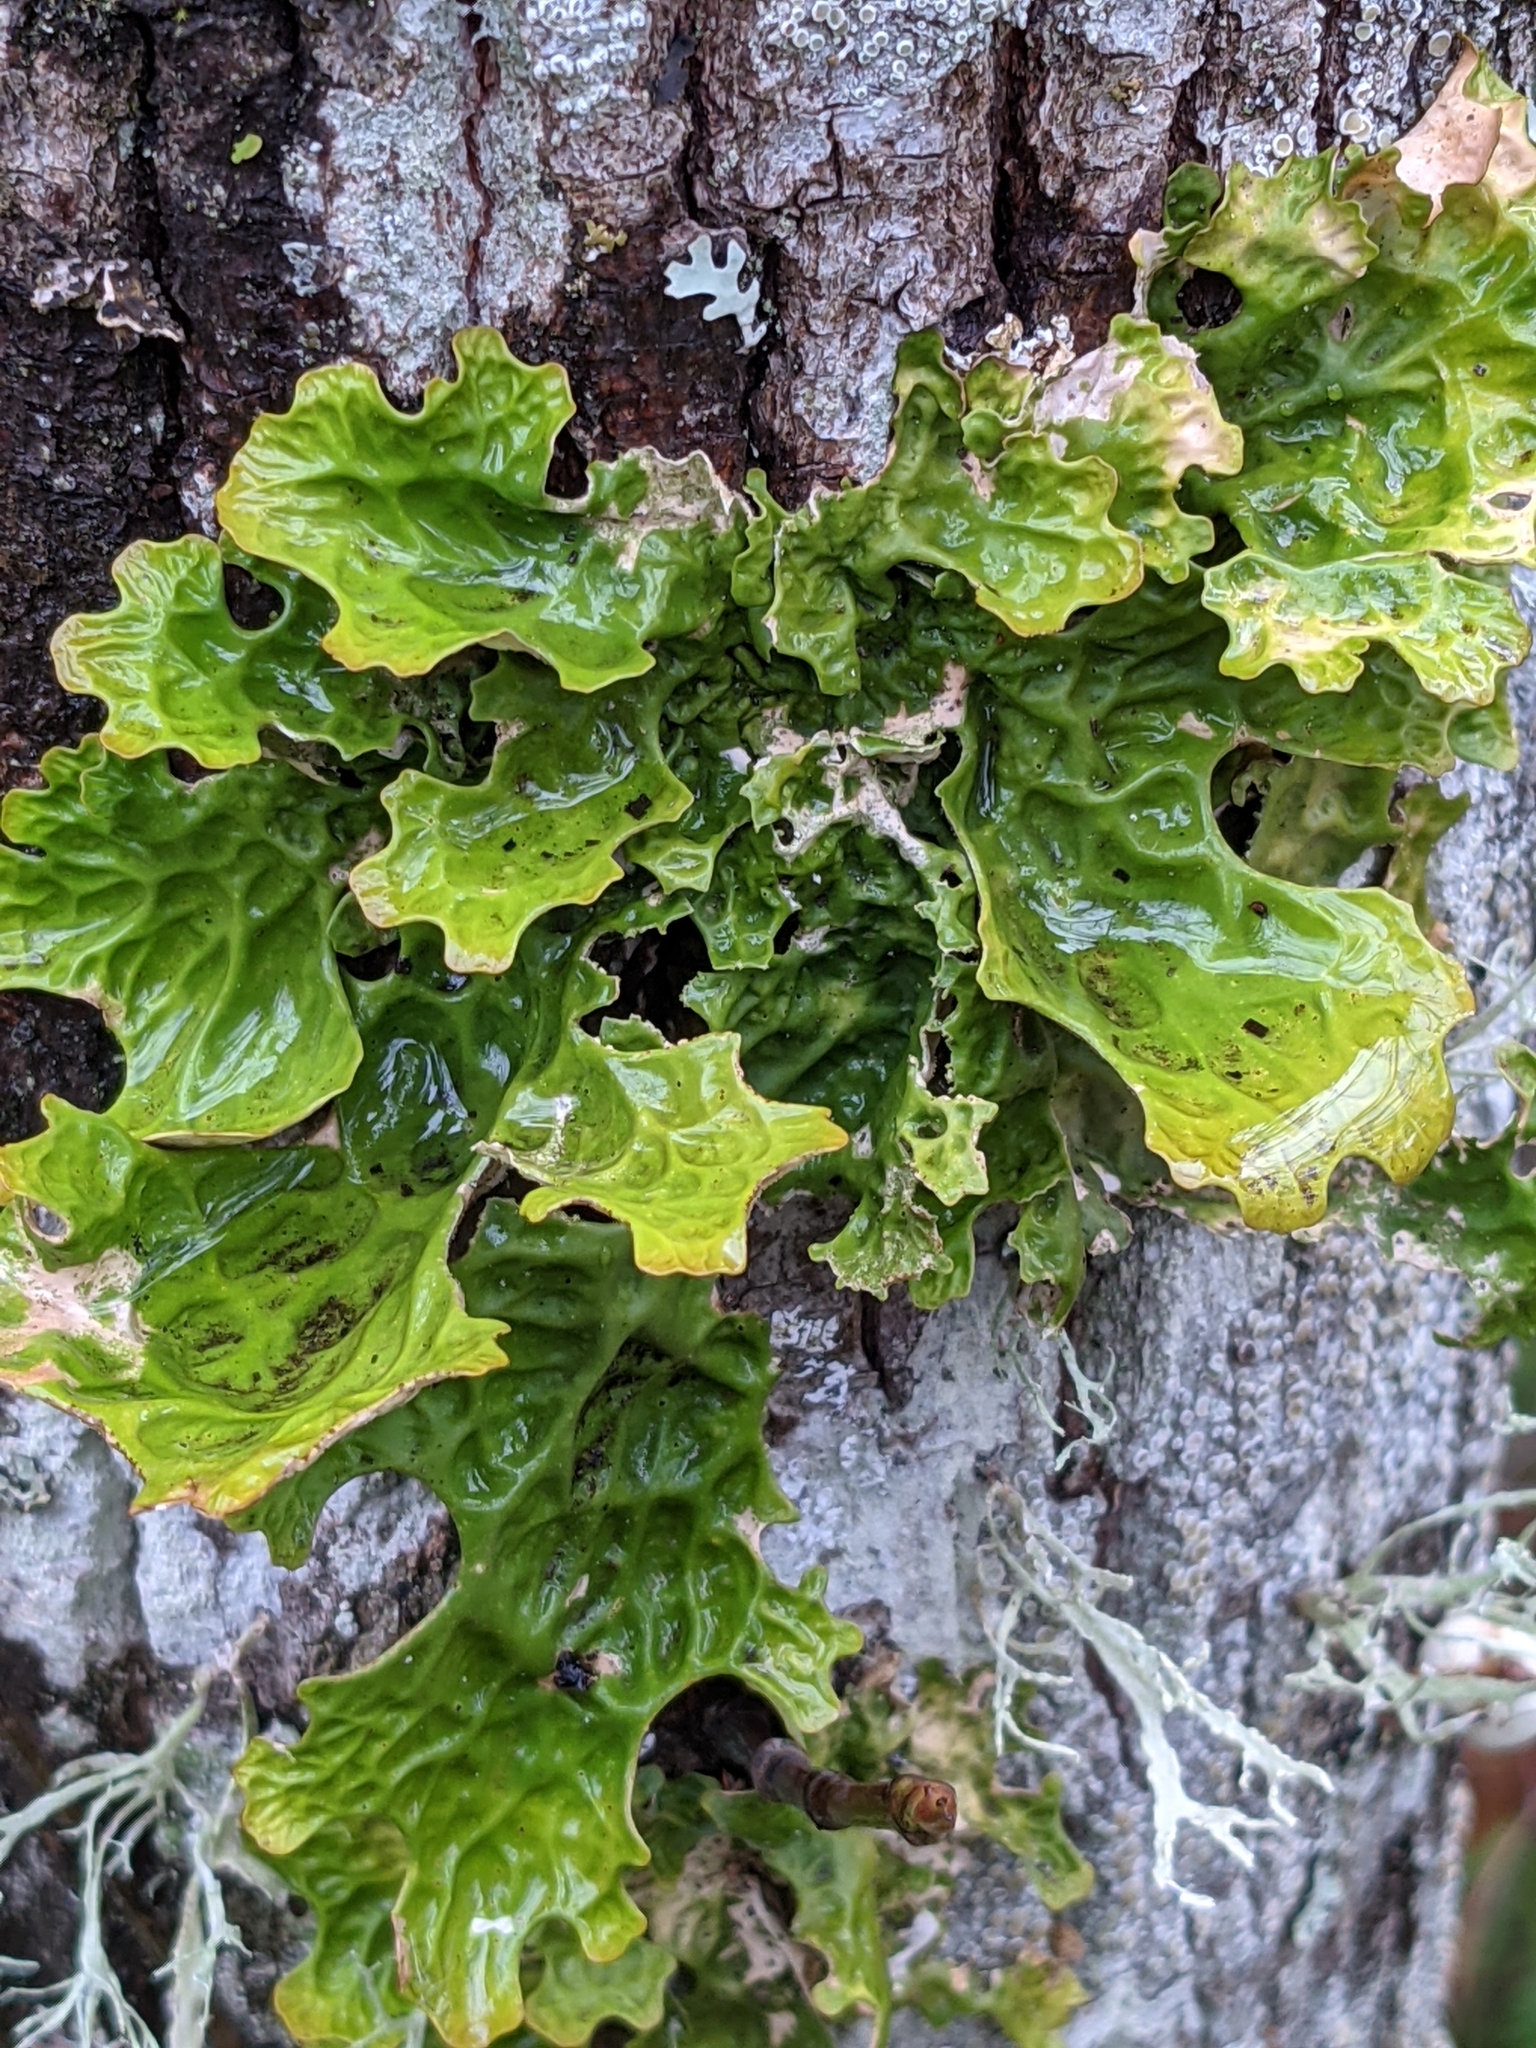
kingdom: Fungi
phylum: Ascomycota
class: Lecanoromycetes
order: Peltigerales
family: Lobariaceae
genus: Lobaria
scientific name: Lobaria pulmonaria
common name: Lungwort
